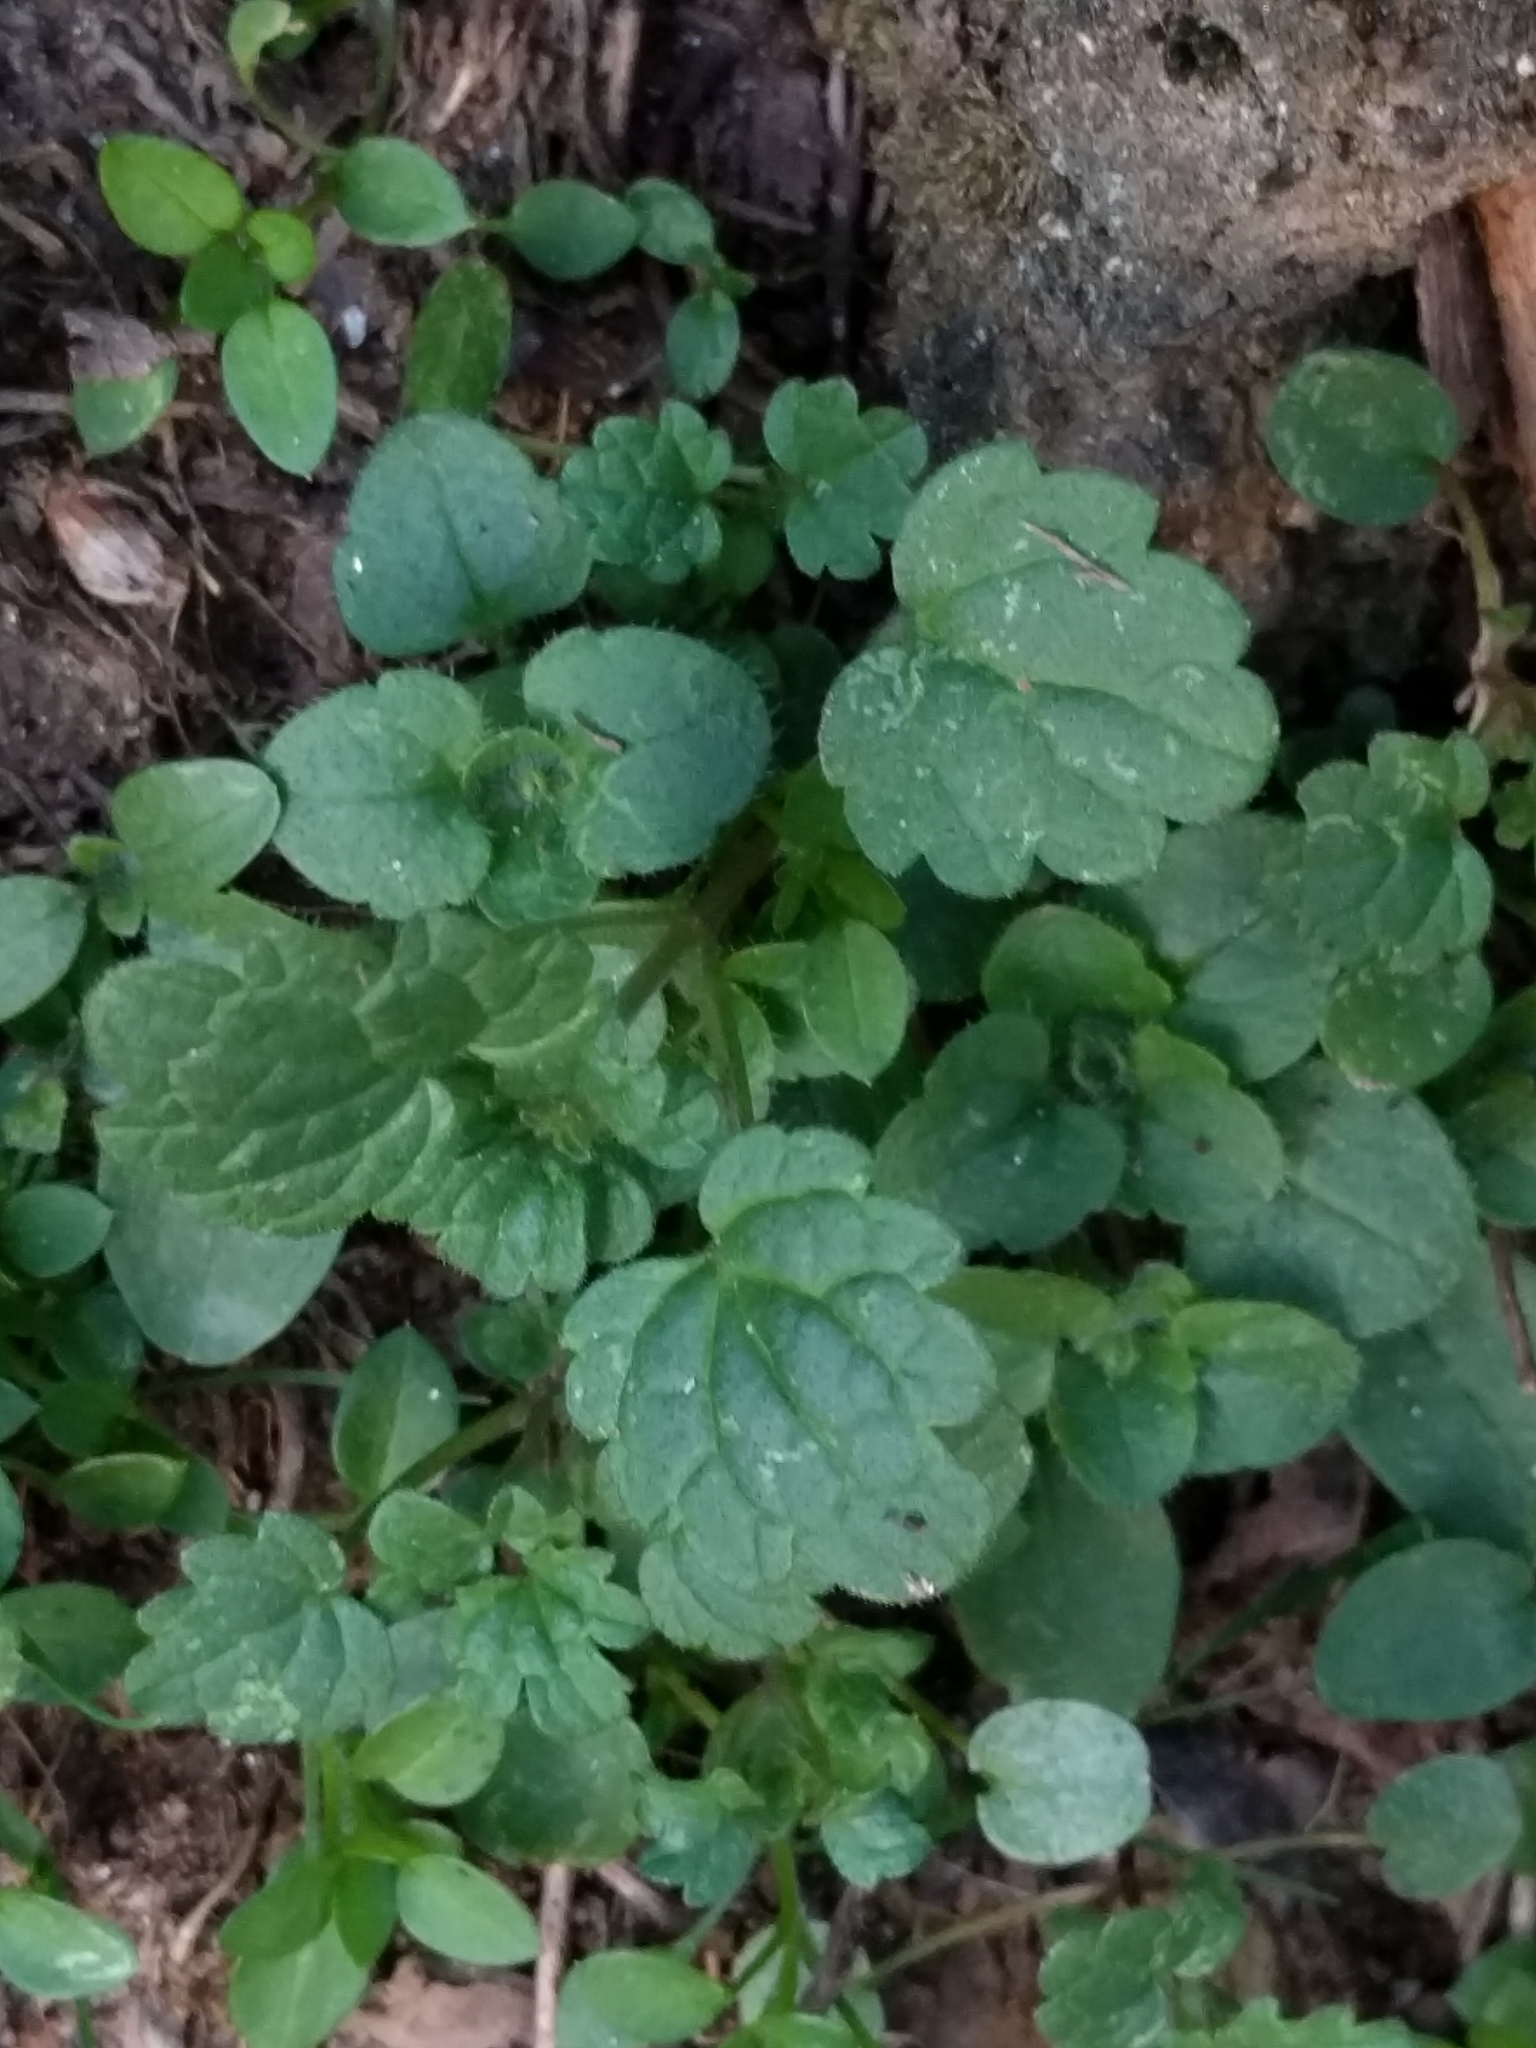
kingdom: Plantae
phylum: Tracheophyta
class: Magnoliopsida
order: Lamiales
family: Lamiaceae
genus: Lamium
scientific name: Lamium amplexicaule
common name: Henbit dead-nettle
